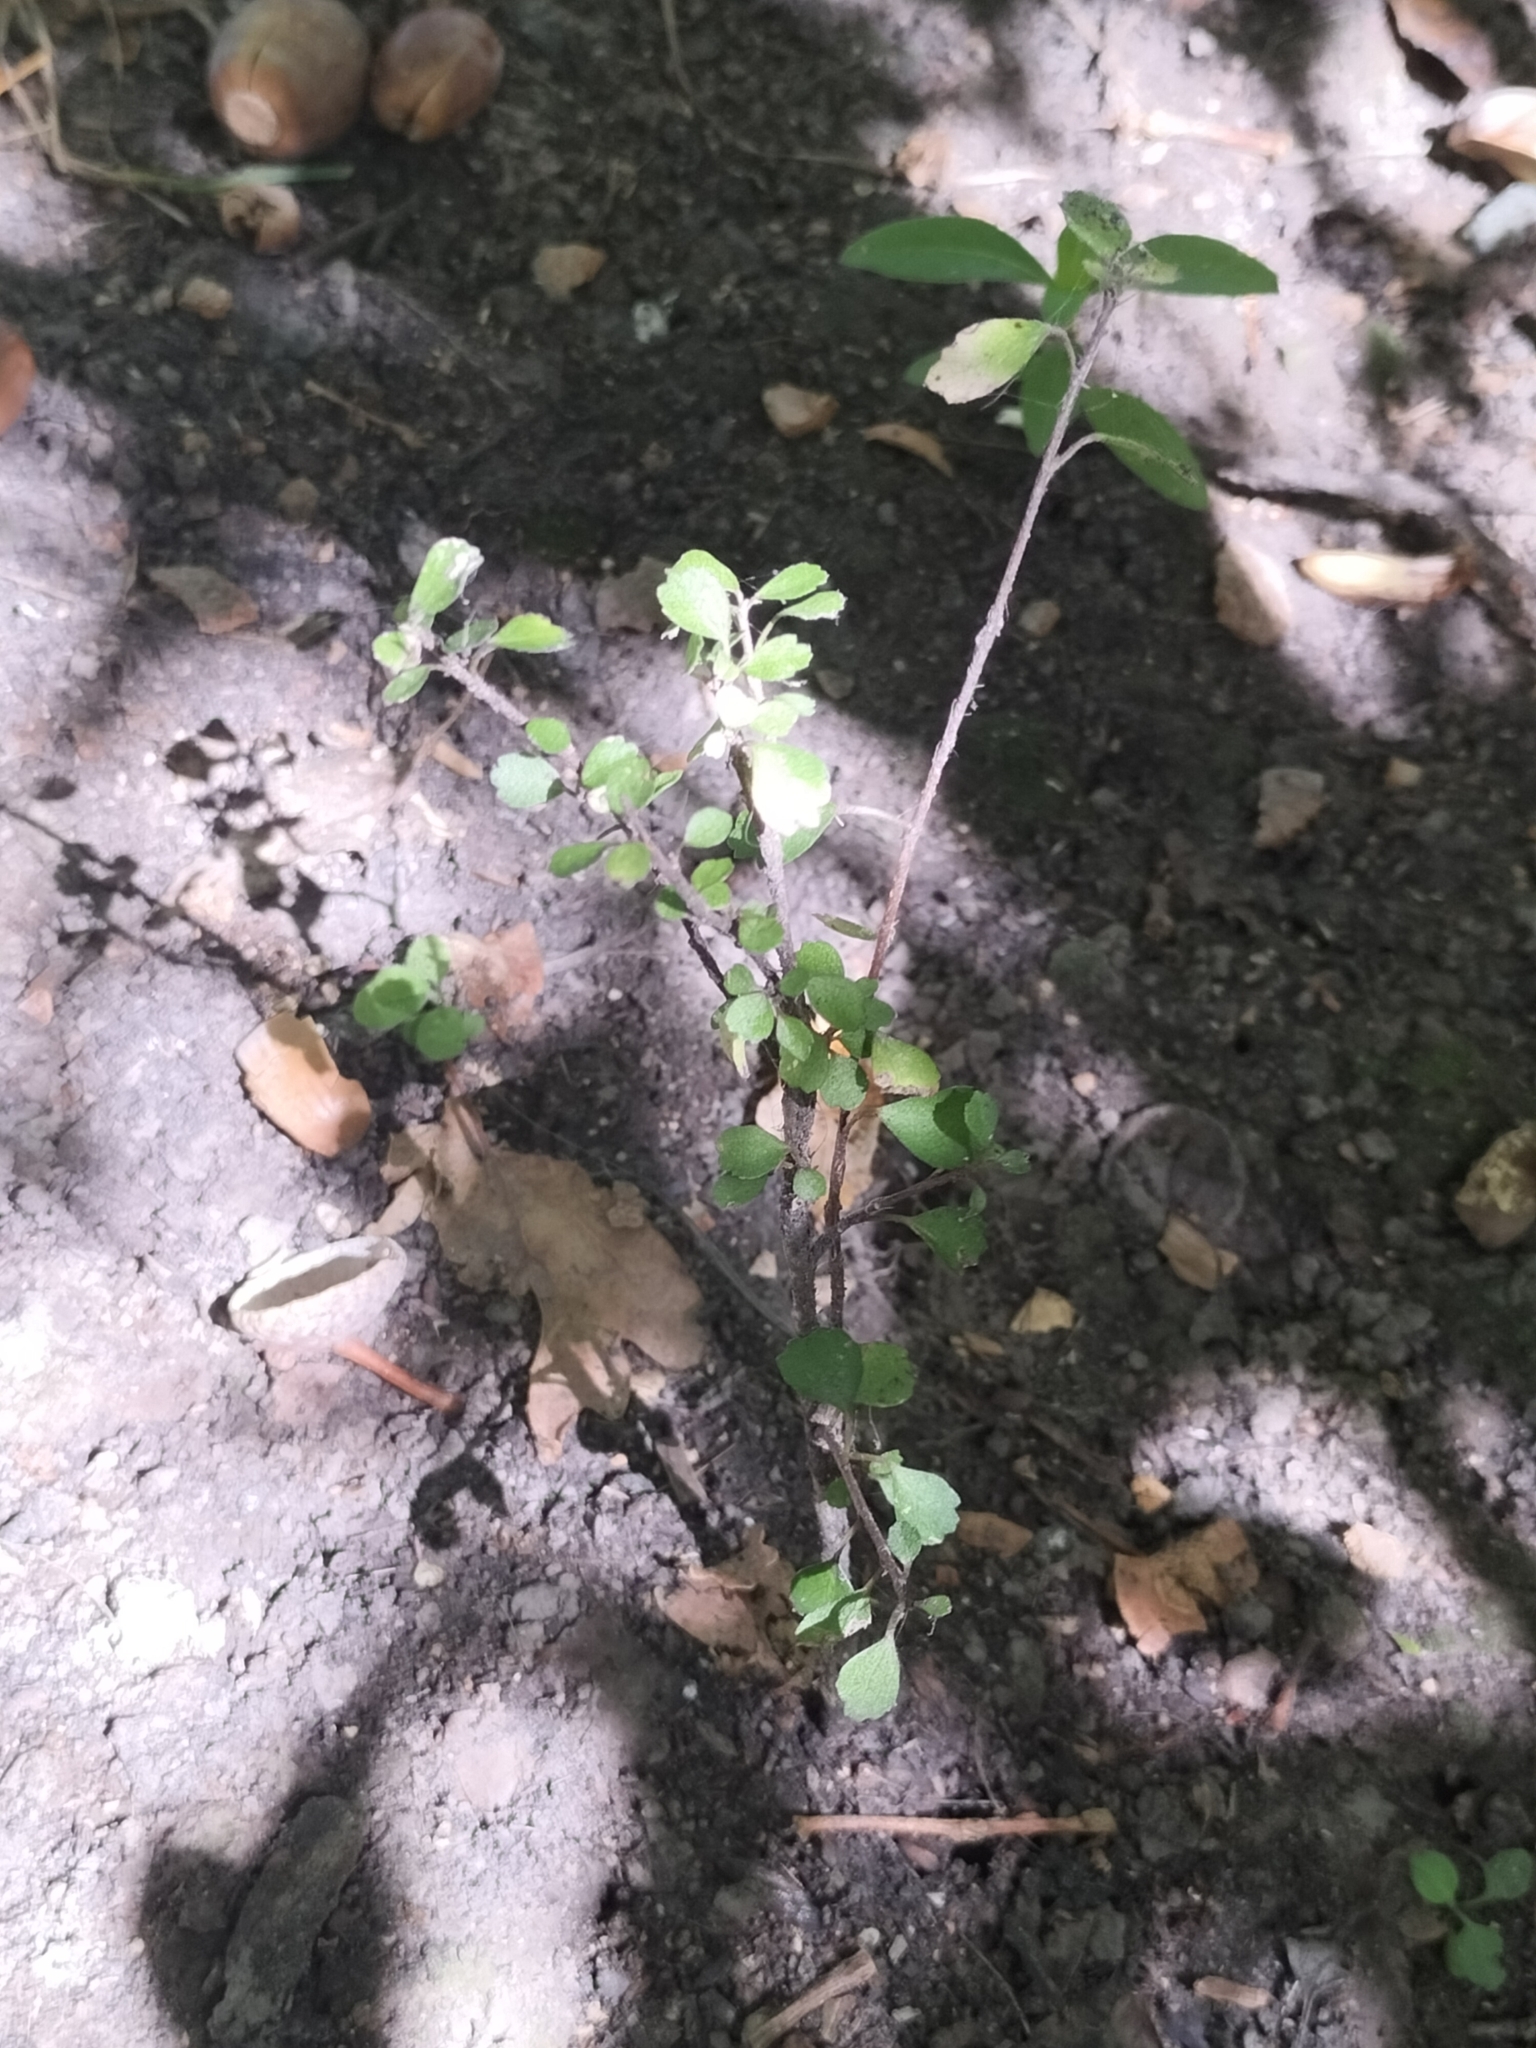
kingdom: Plantae
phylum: Tracheophyta
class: Magnoliopsida
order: Malvales
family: Malvaceae
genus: Hoheria
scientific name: Hoheria angustifolia
